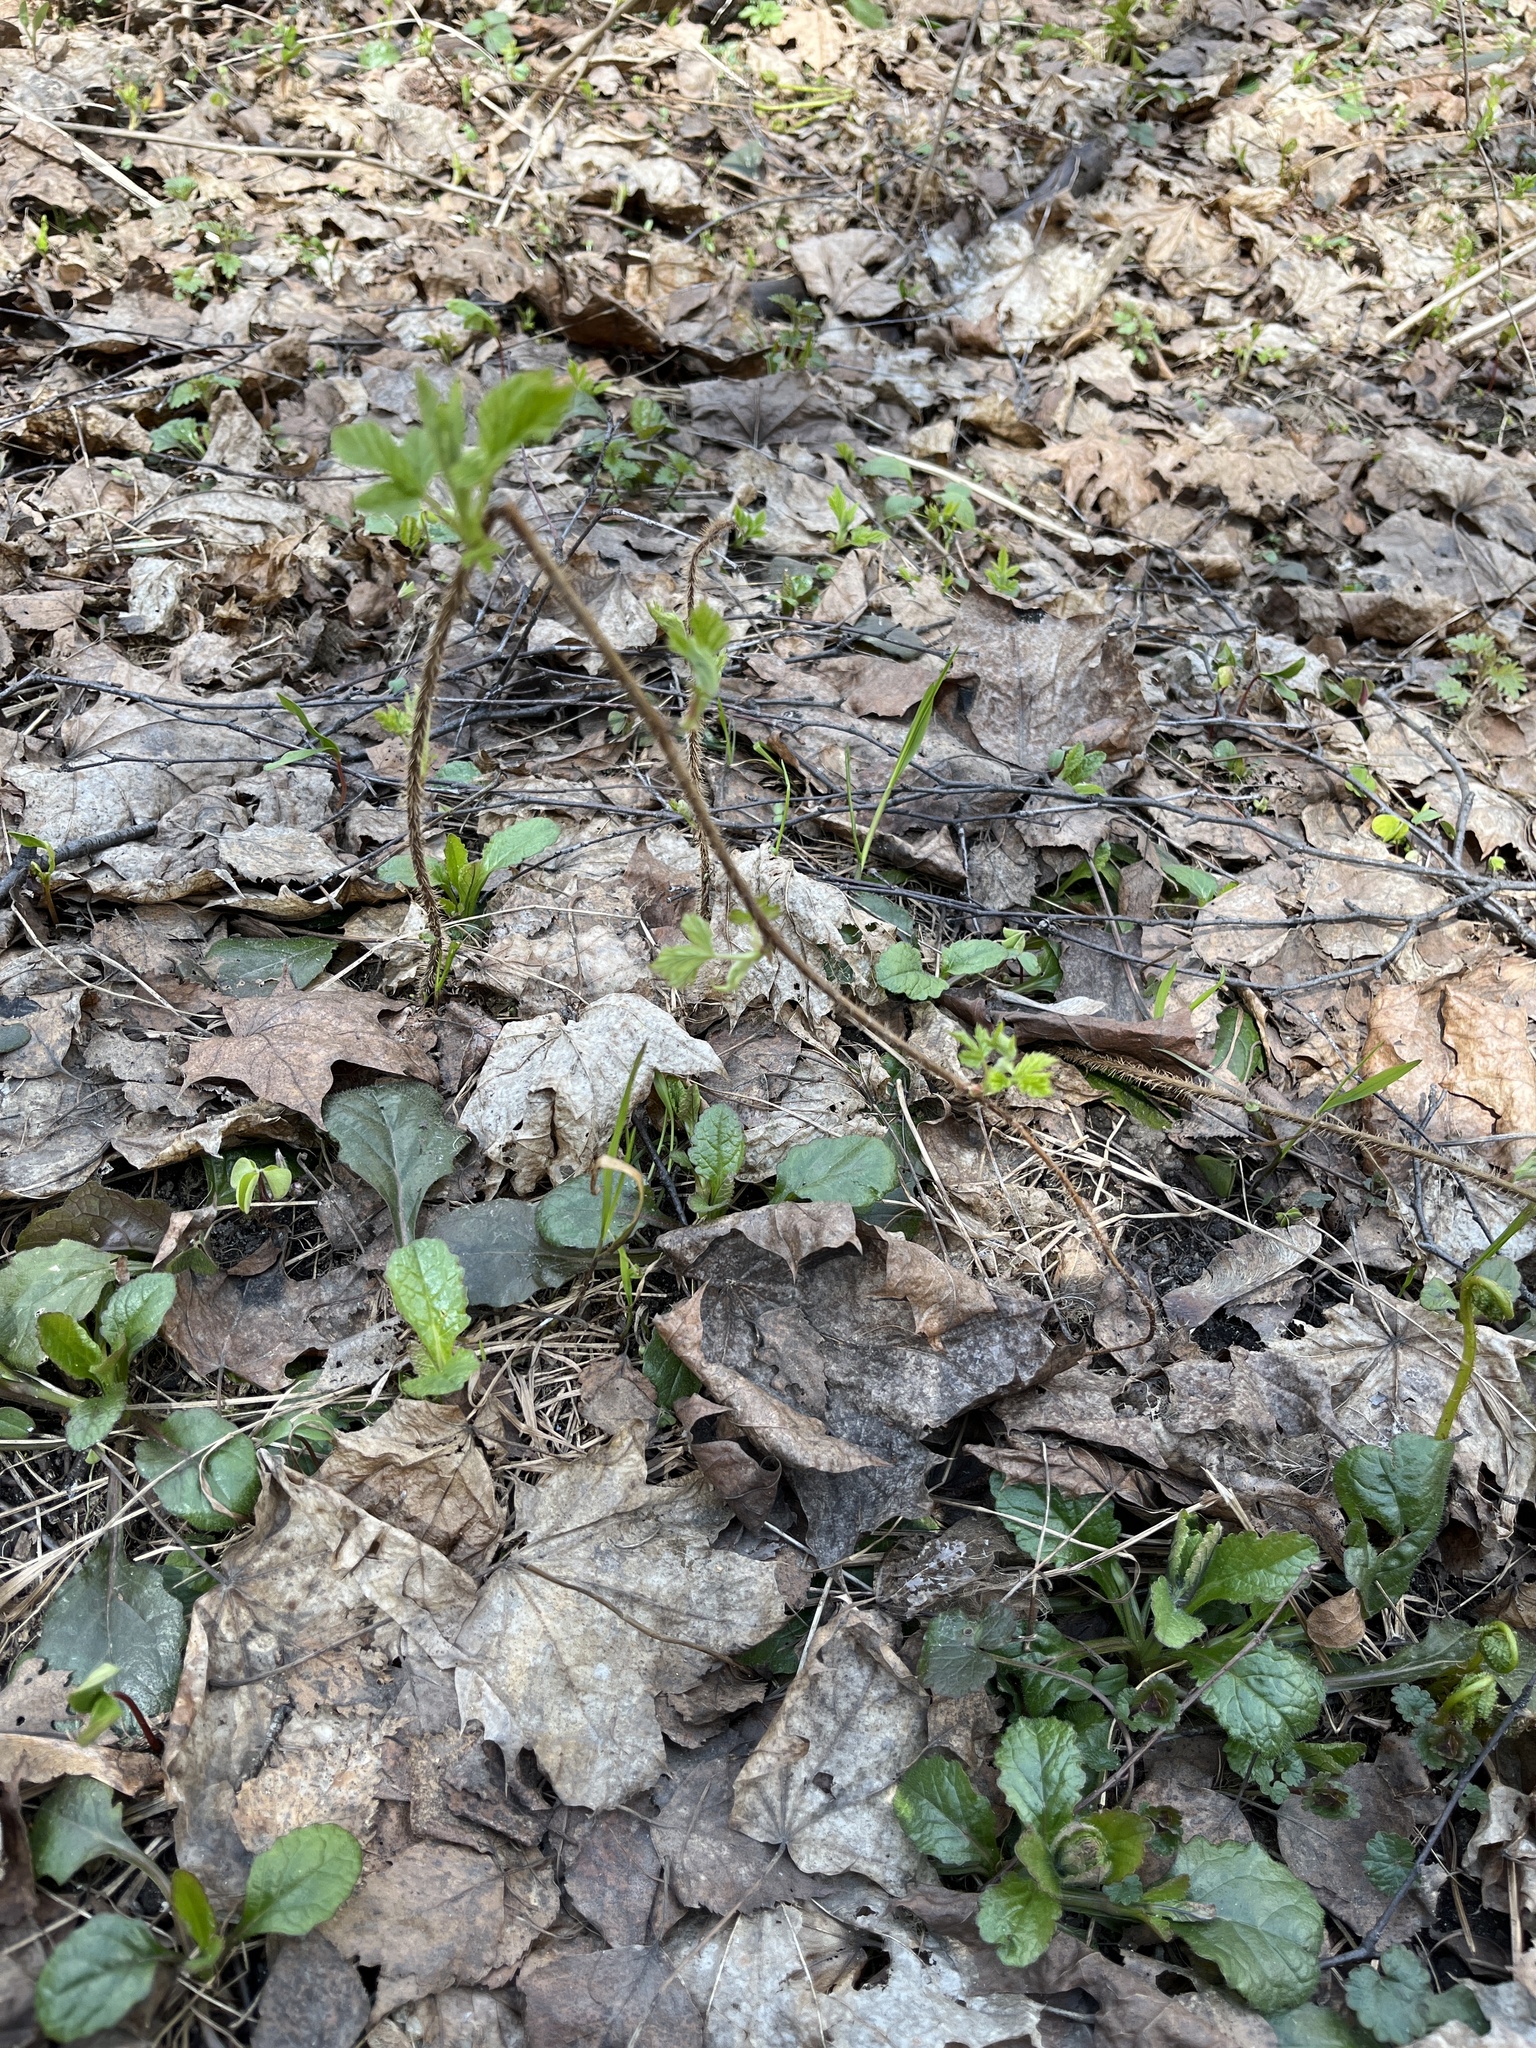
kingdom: Plantae
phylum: Tracheophyta
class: Magnoliopsida
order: Rosales
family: Rosaceae
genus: Rubus
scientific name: Rubus idaeus
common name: Raspberry
